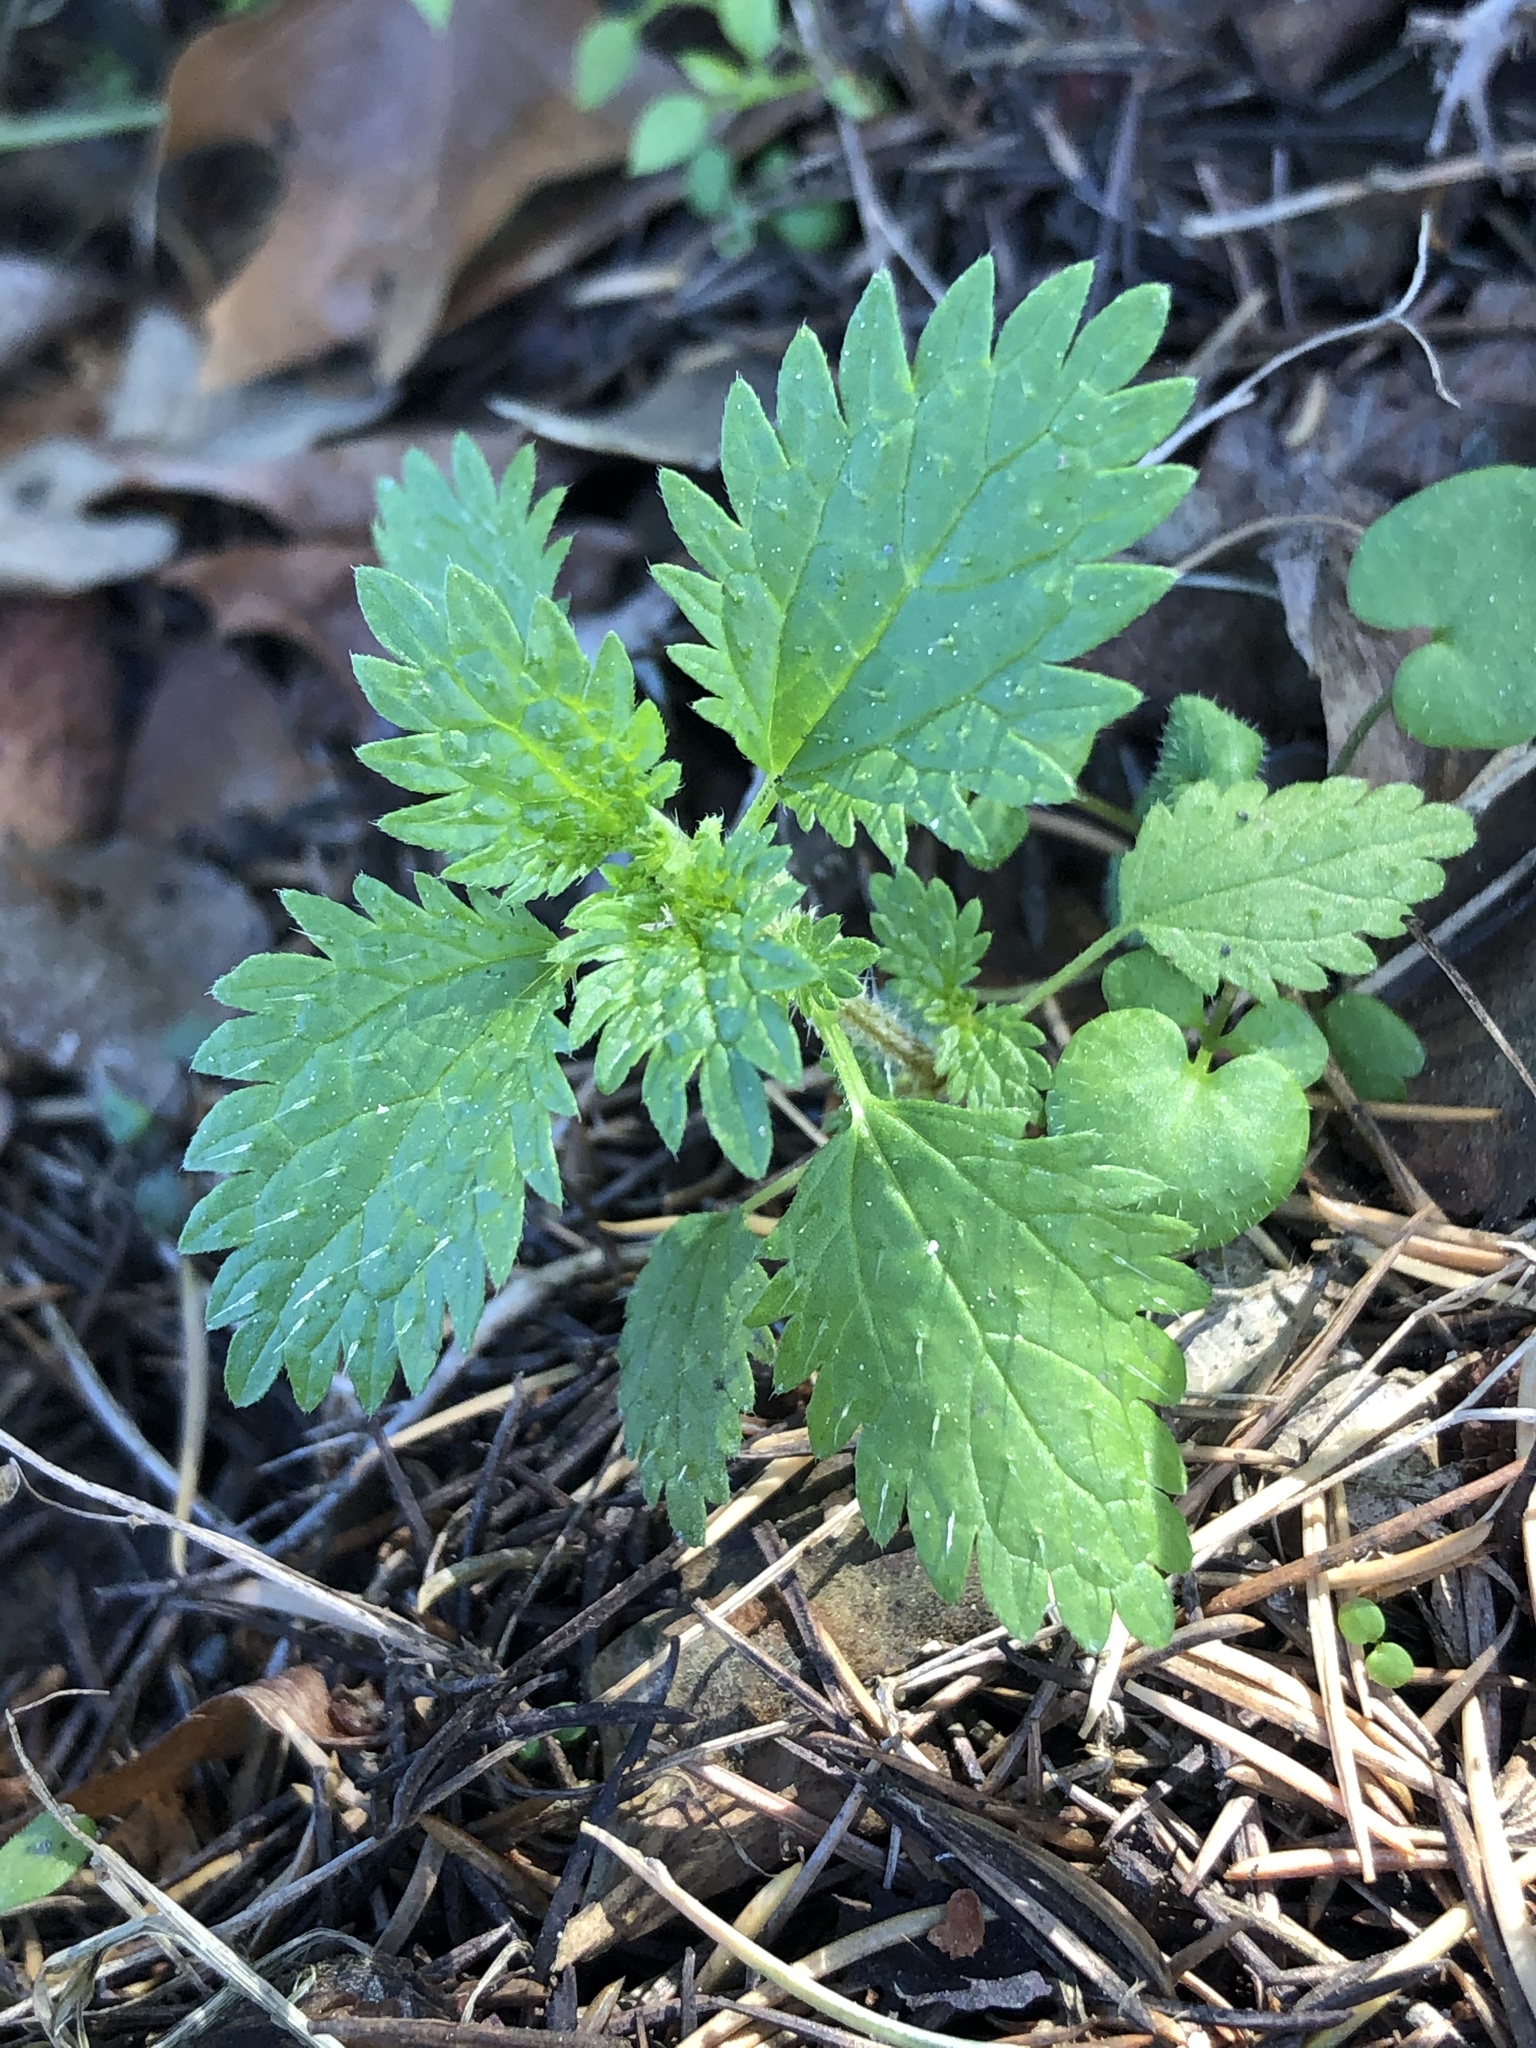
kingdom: Plantae
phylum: Tracheophyta
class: Magnoliopsida
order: Rosales
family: Urticaceae
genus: Urtica
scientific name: Urtica urens
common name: Dwarf nettle
